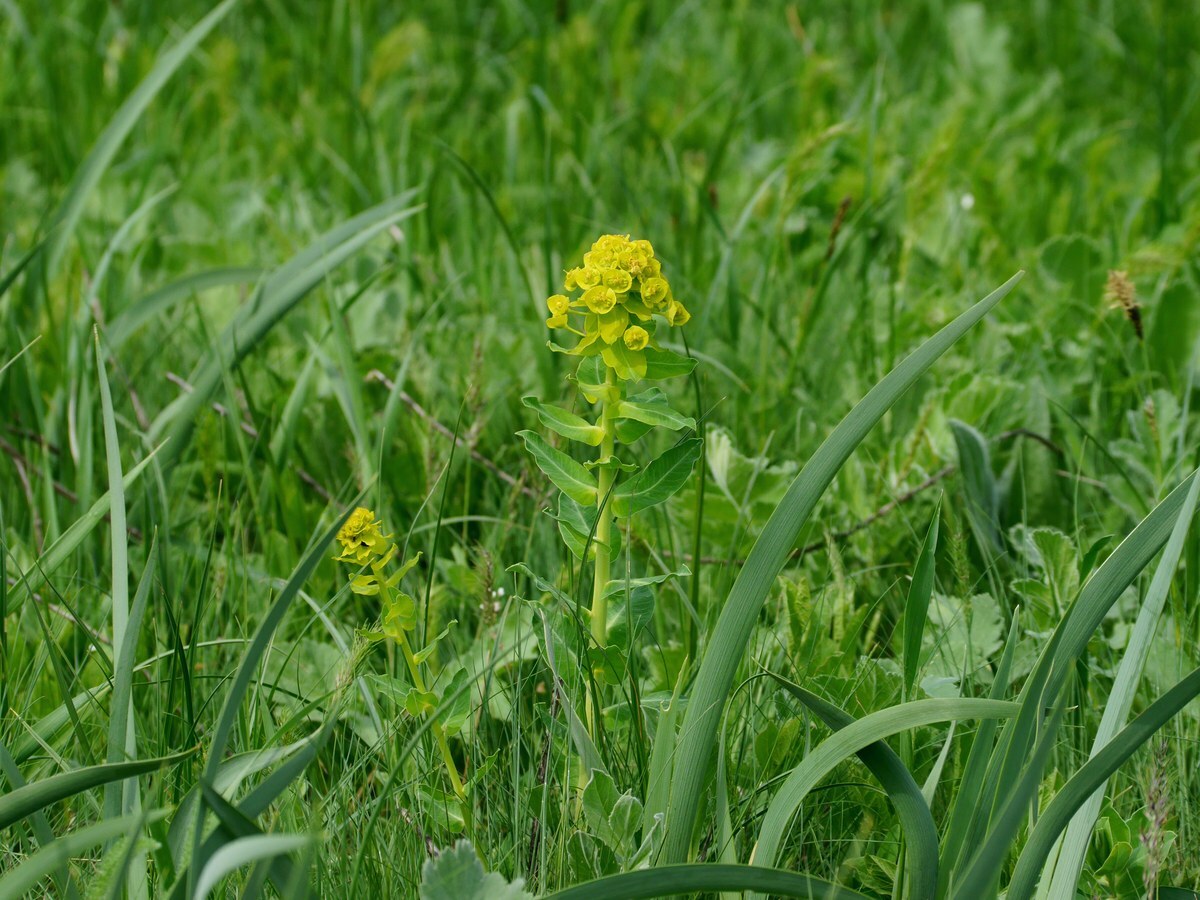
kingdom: Plantae
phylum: Tracheophyta
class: Magnoliopsida
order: Malpighiales
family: Euphorbiaceae
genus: Euphorbia
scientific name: Euphorbia agraria
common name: Urban spurge
